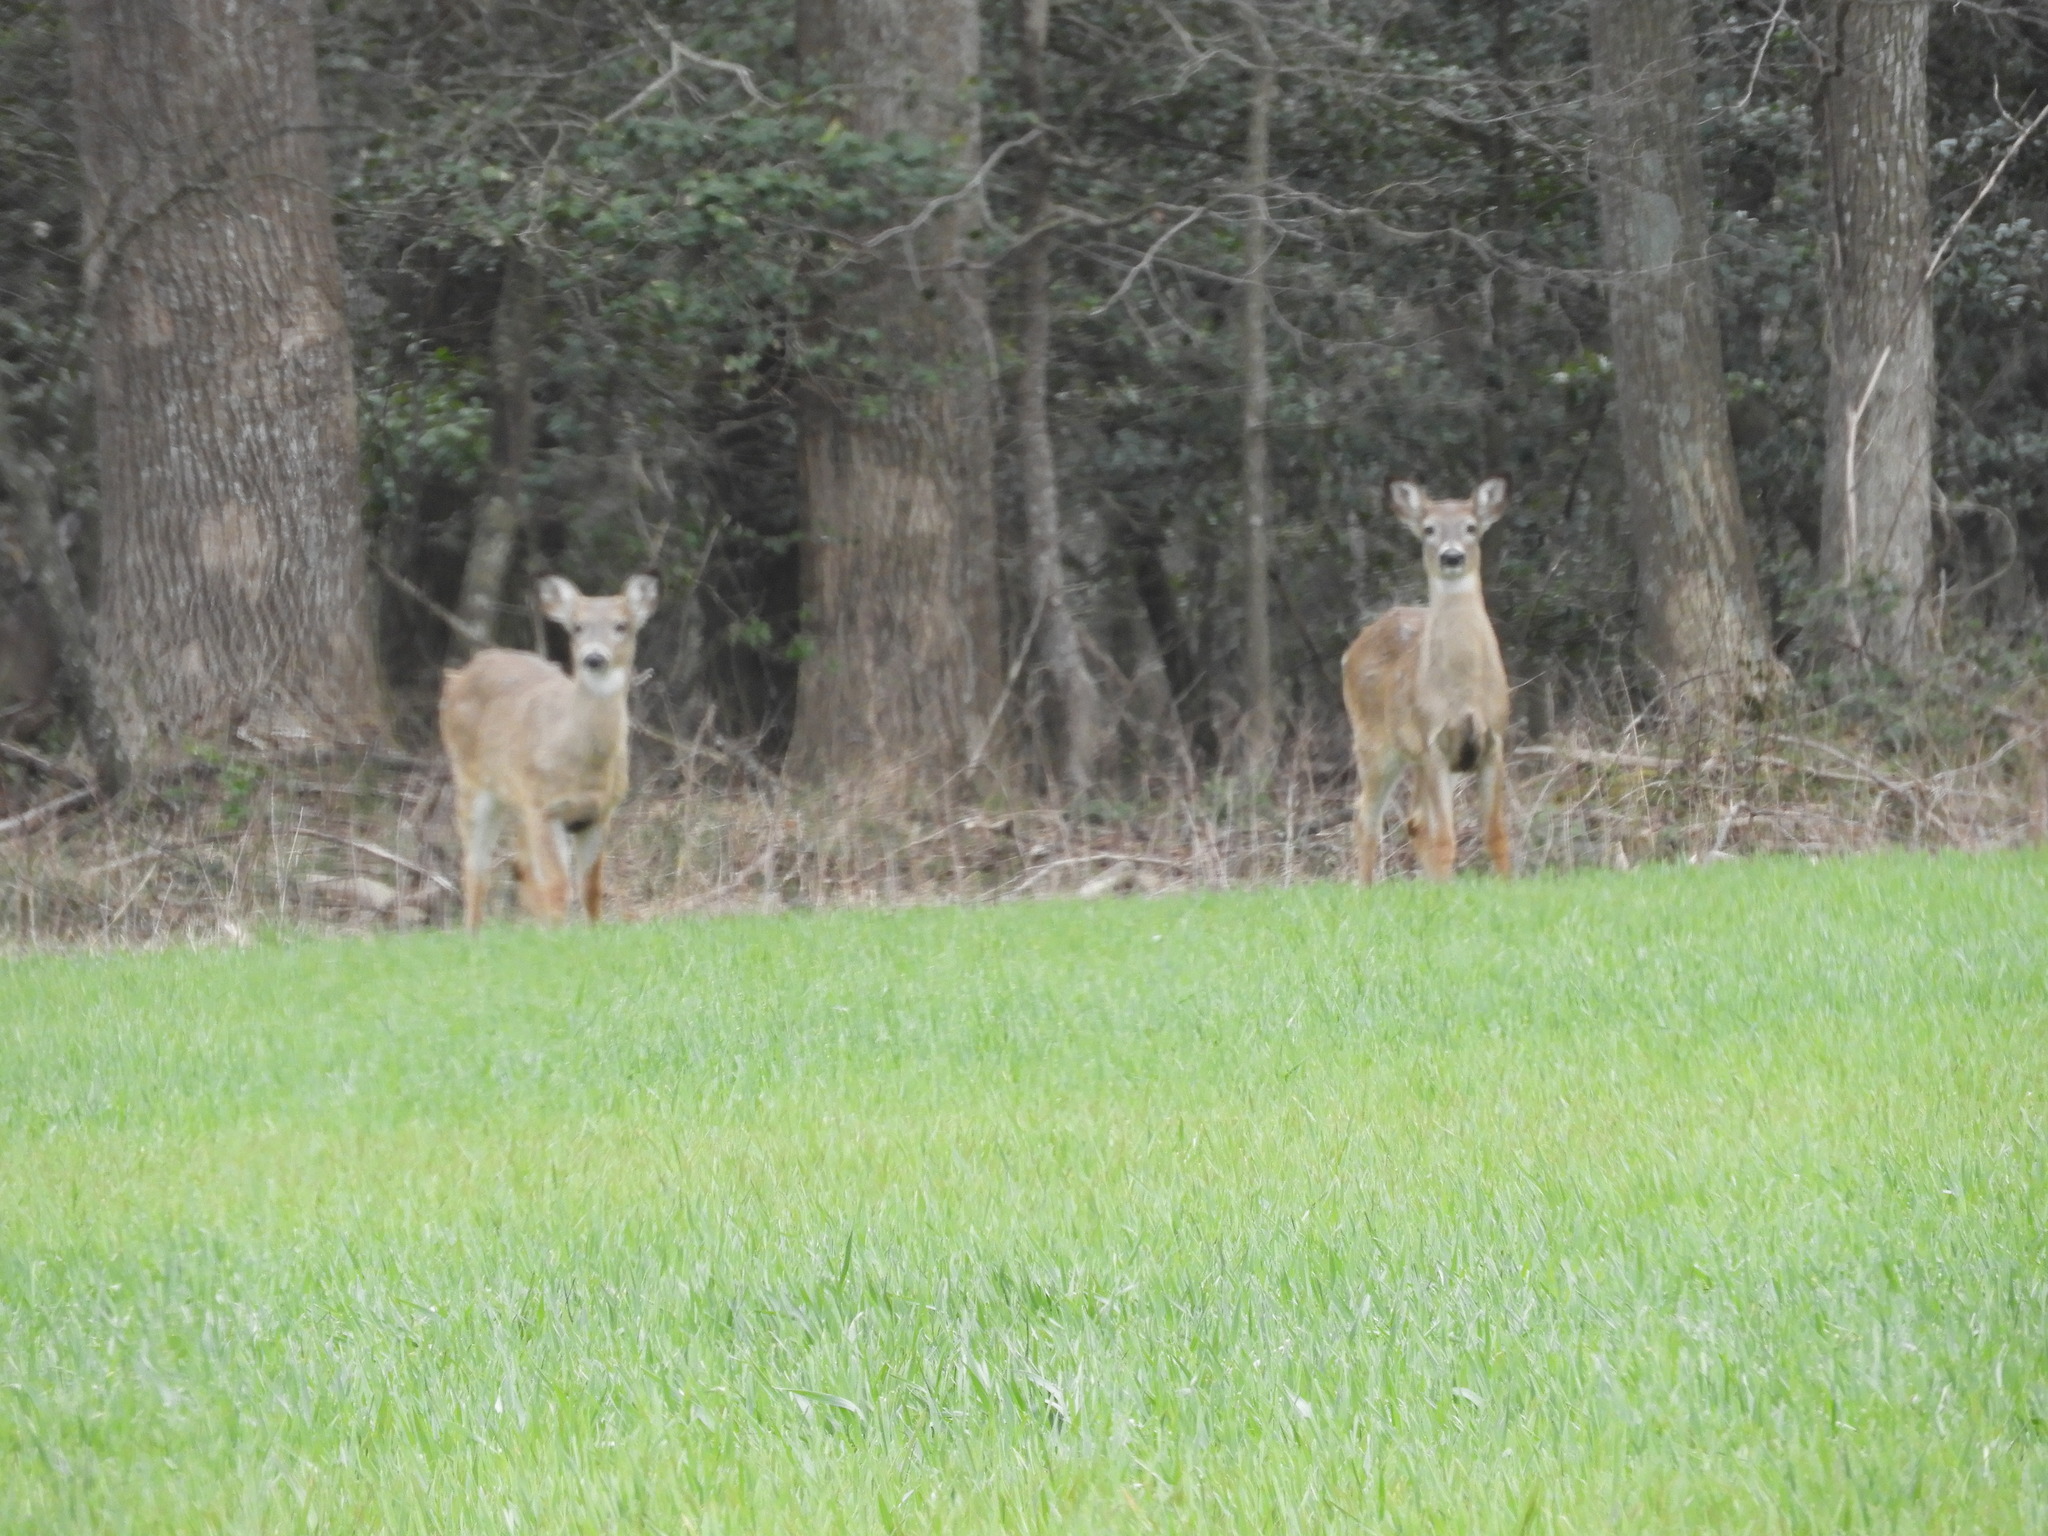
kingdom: Animalia
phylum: Chordata
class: Mammalia
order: Artiodactyla
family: Cervidae
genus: Odocoileus
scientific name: Odocoileus virginianus
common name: White-tailed deer
